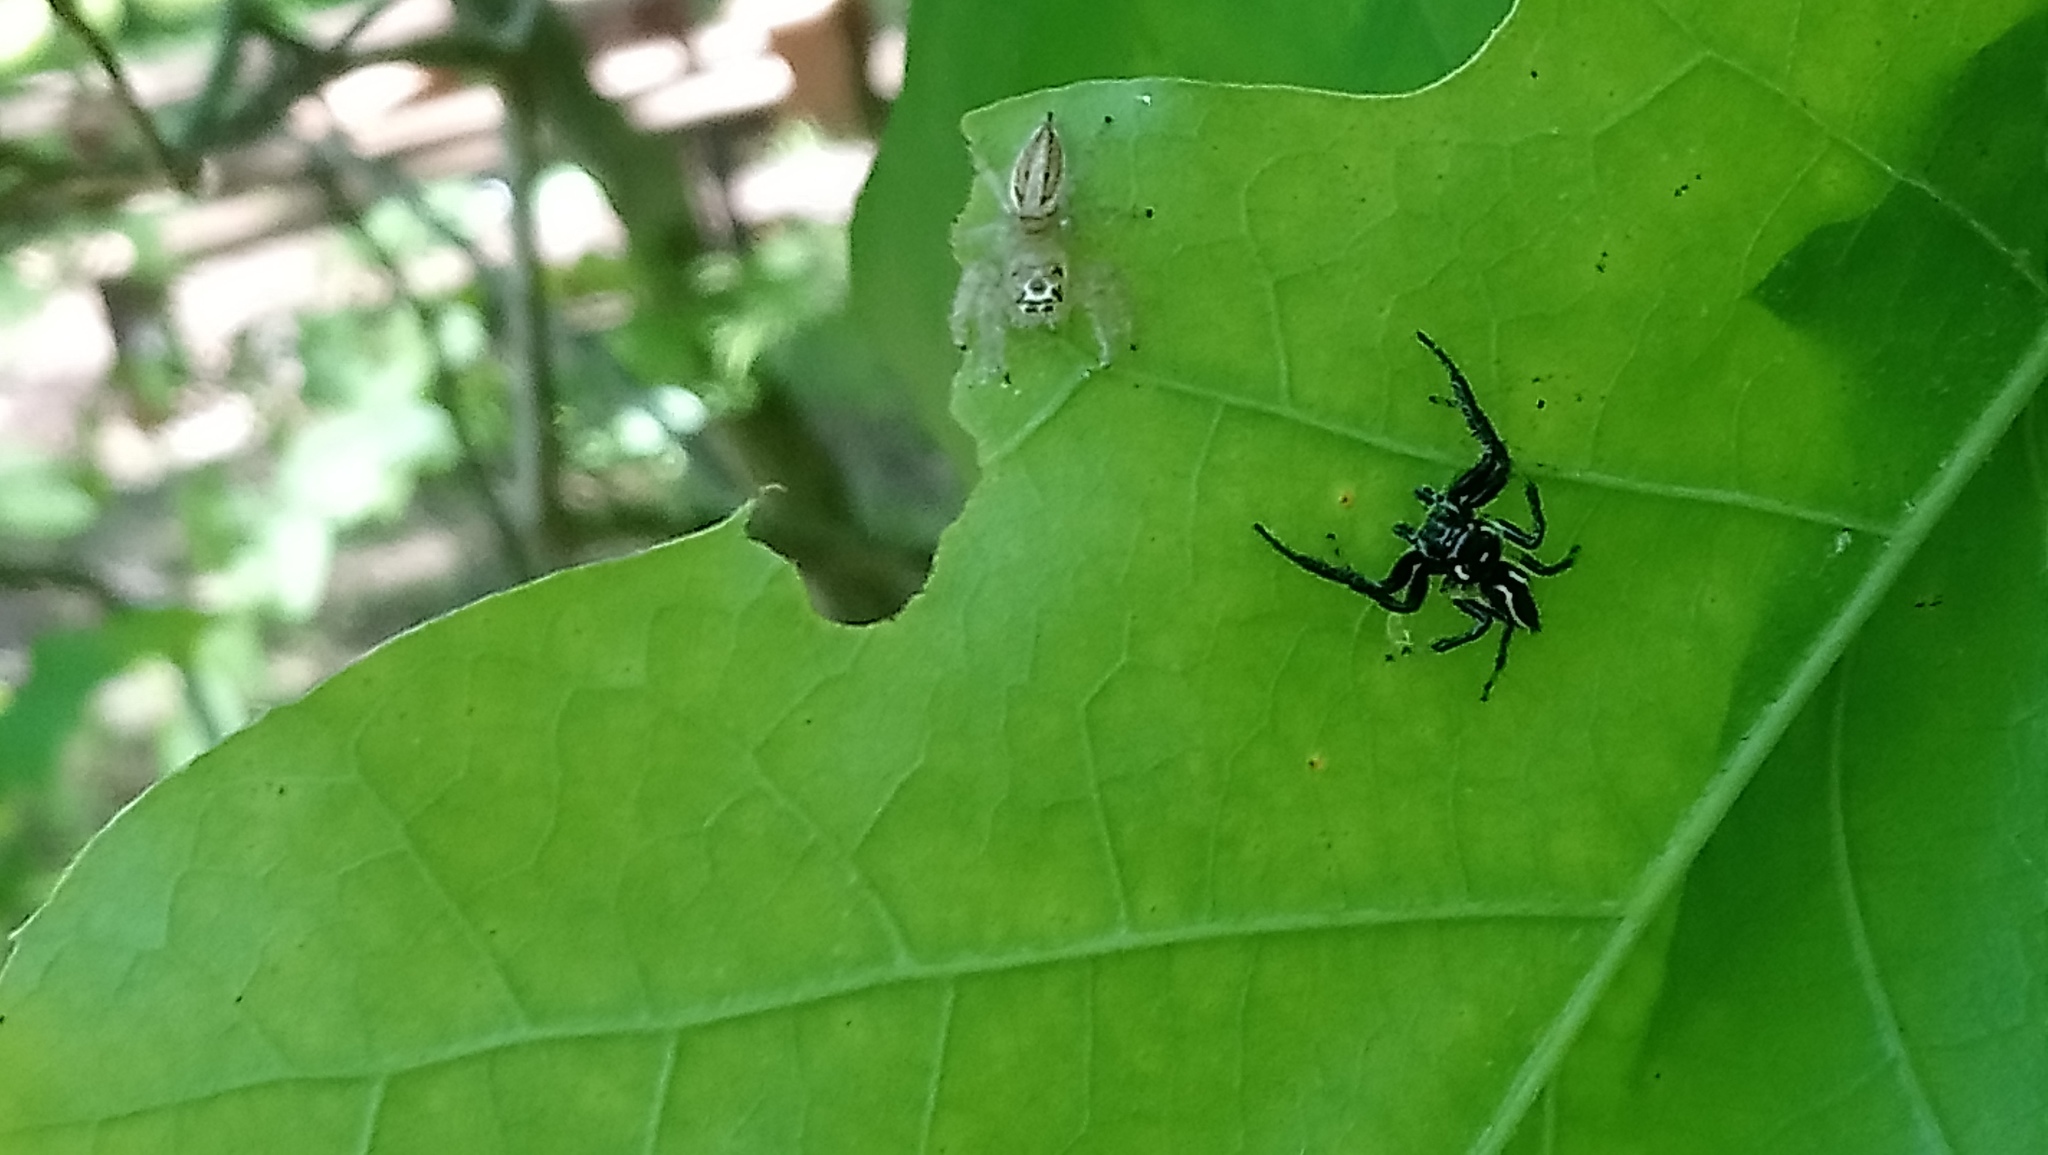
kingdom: Animalia
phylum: Arthropoda
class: Arachnida
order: Araneae
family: Salticidae
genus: Colonus
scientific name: Colonus sylvanus
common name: Jumping spiders
